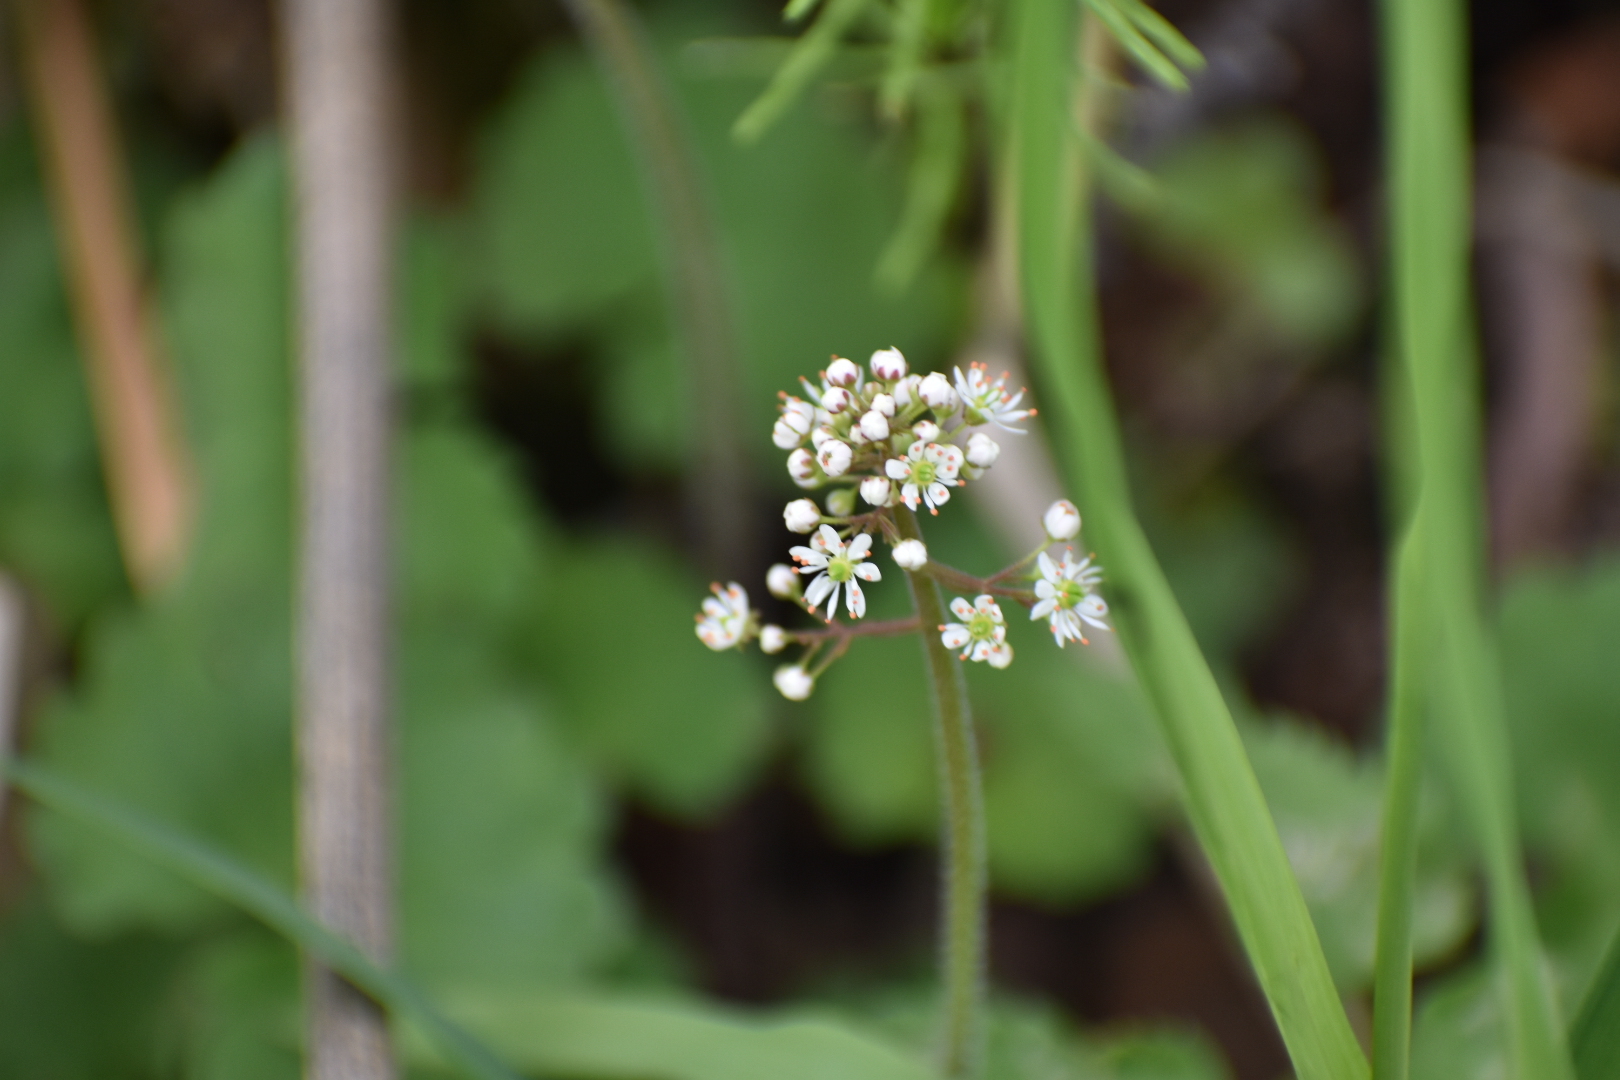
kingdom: Plantae
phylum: Tracheophyta
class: Magnoliopsida
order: Saxifragales
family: Saxifragaceae
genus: Micranthes
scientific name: Micranthes nelsoniana
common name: Nelson's saxifrage
